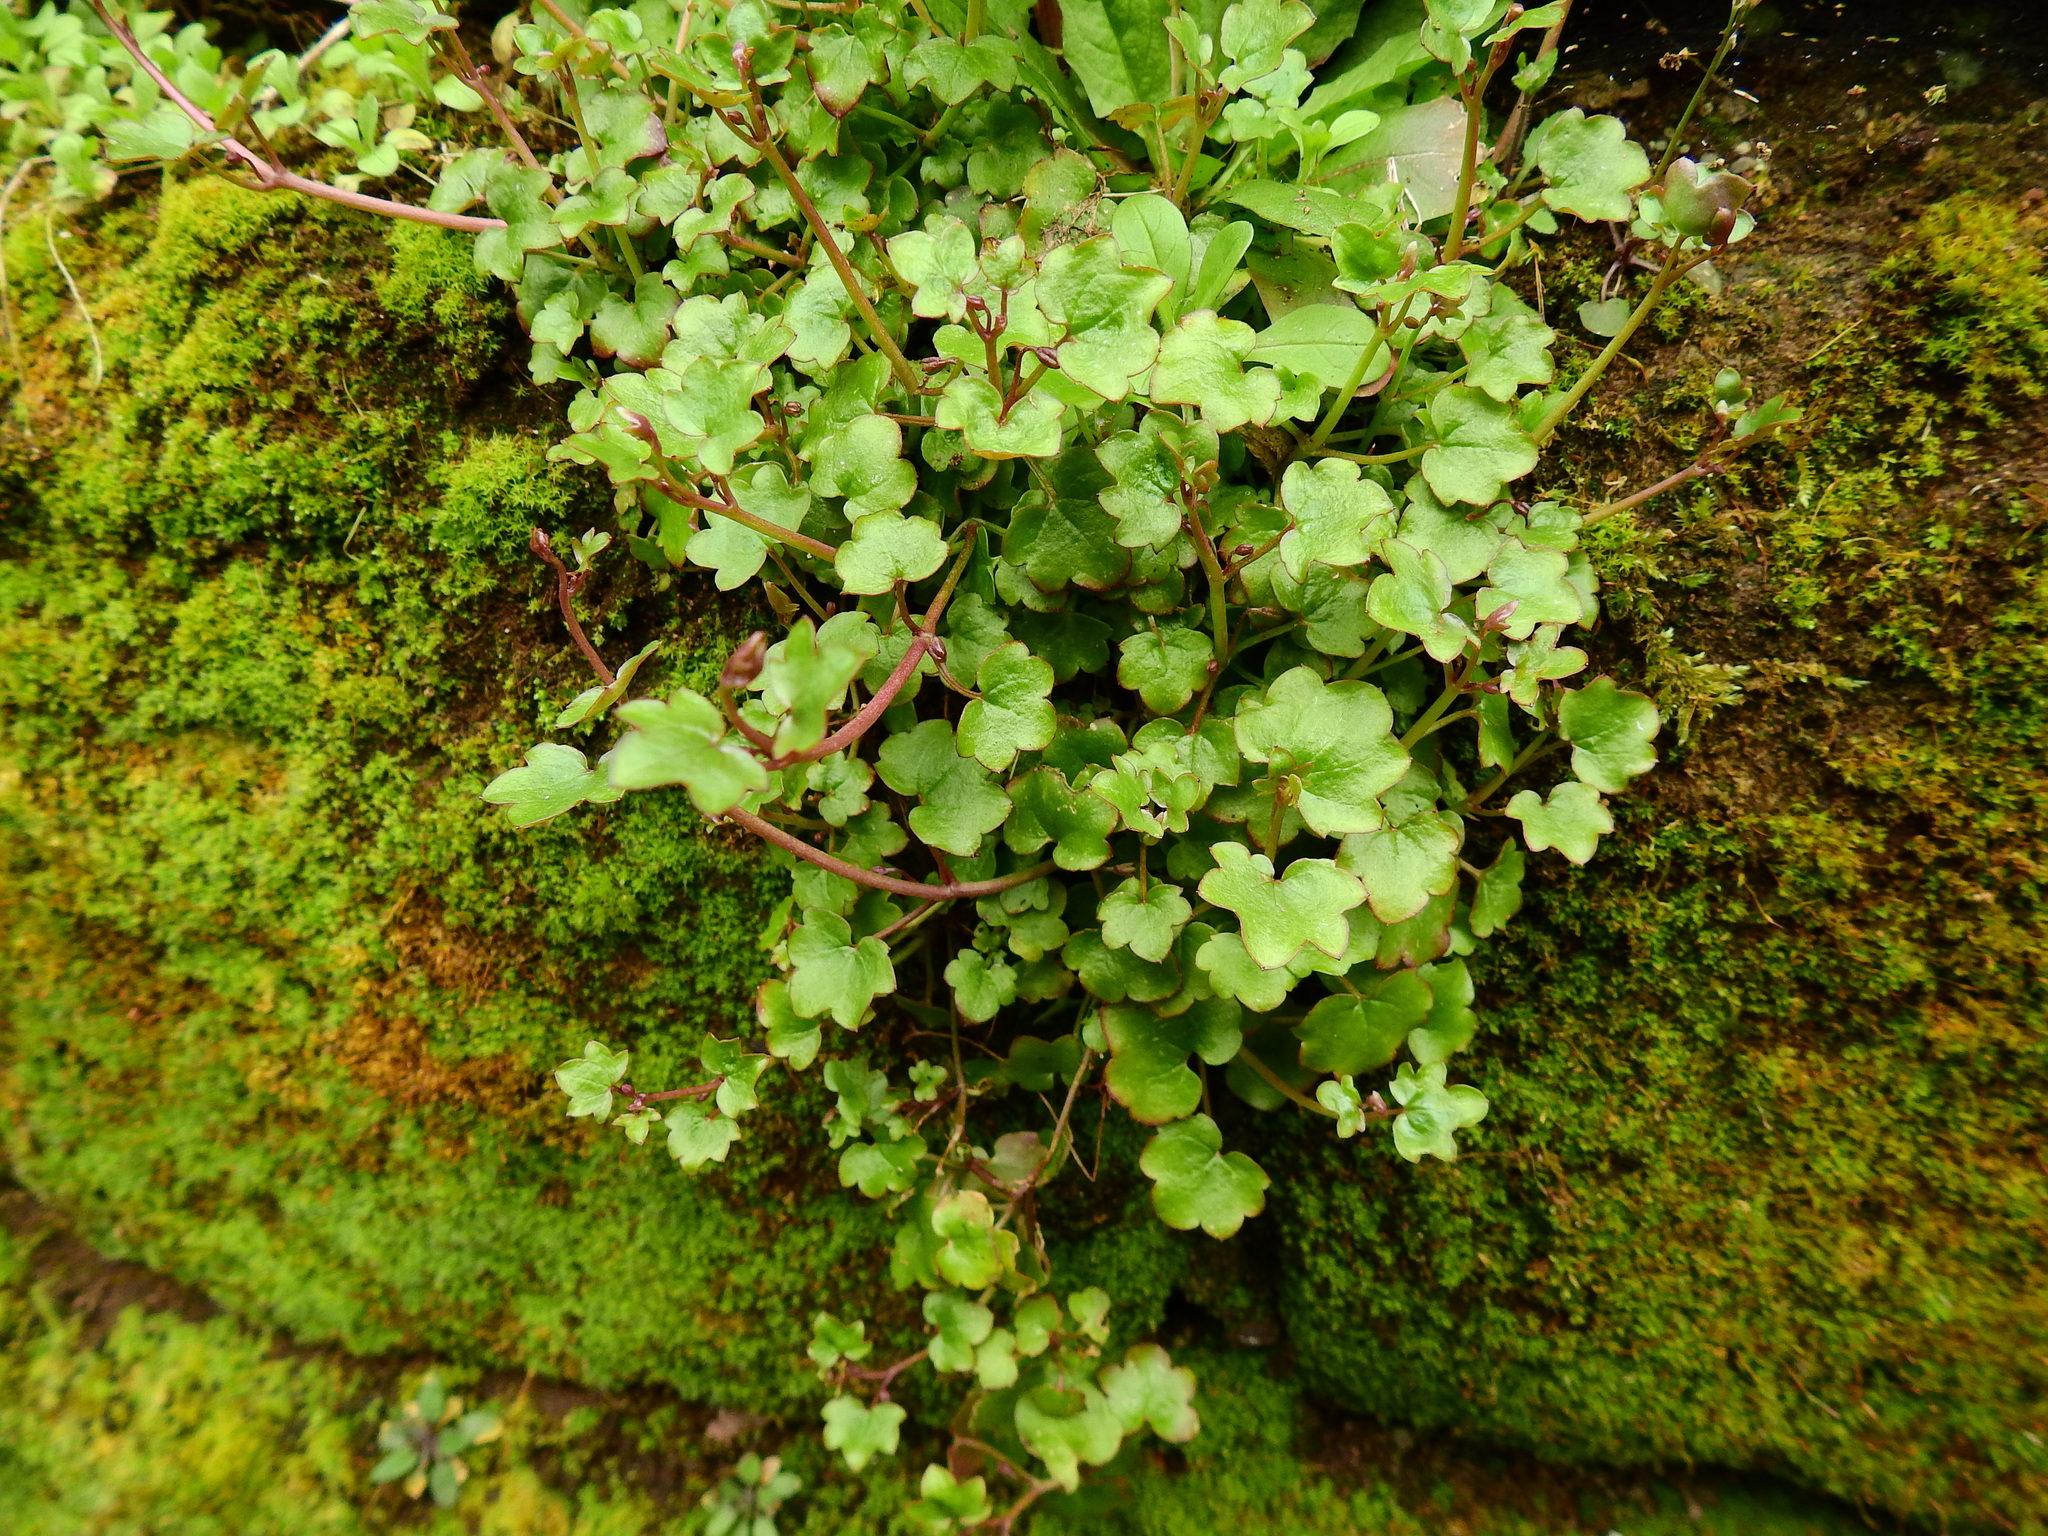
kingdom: Plantae
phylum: Tracheophyta
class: Magnoliopsida
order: Lamiales
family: Plantaginaceae
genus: Cymbalaria
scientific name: Cymbalaria muralis
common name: Ivy-leaved toadflax
